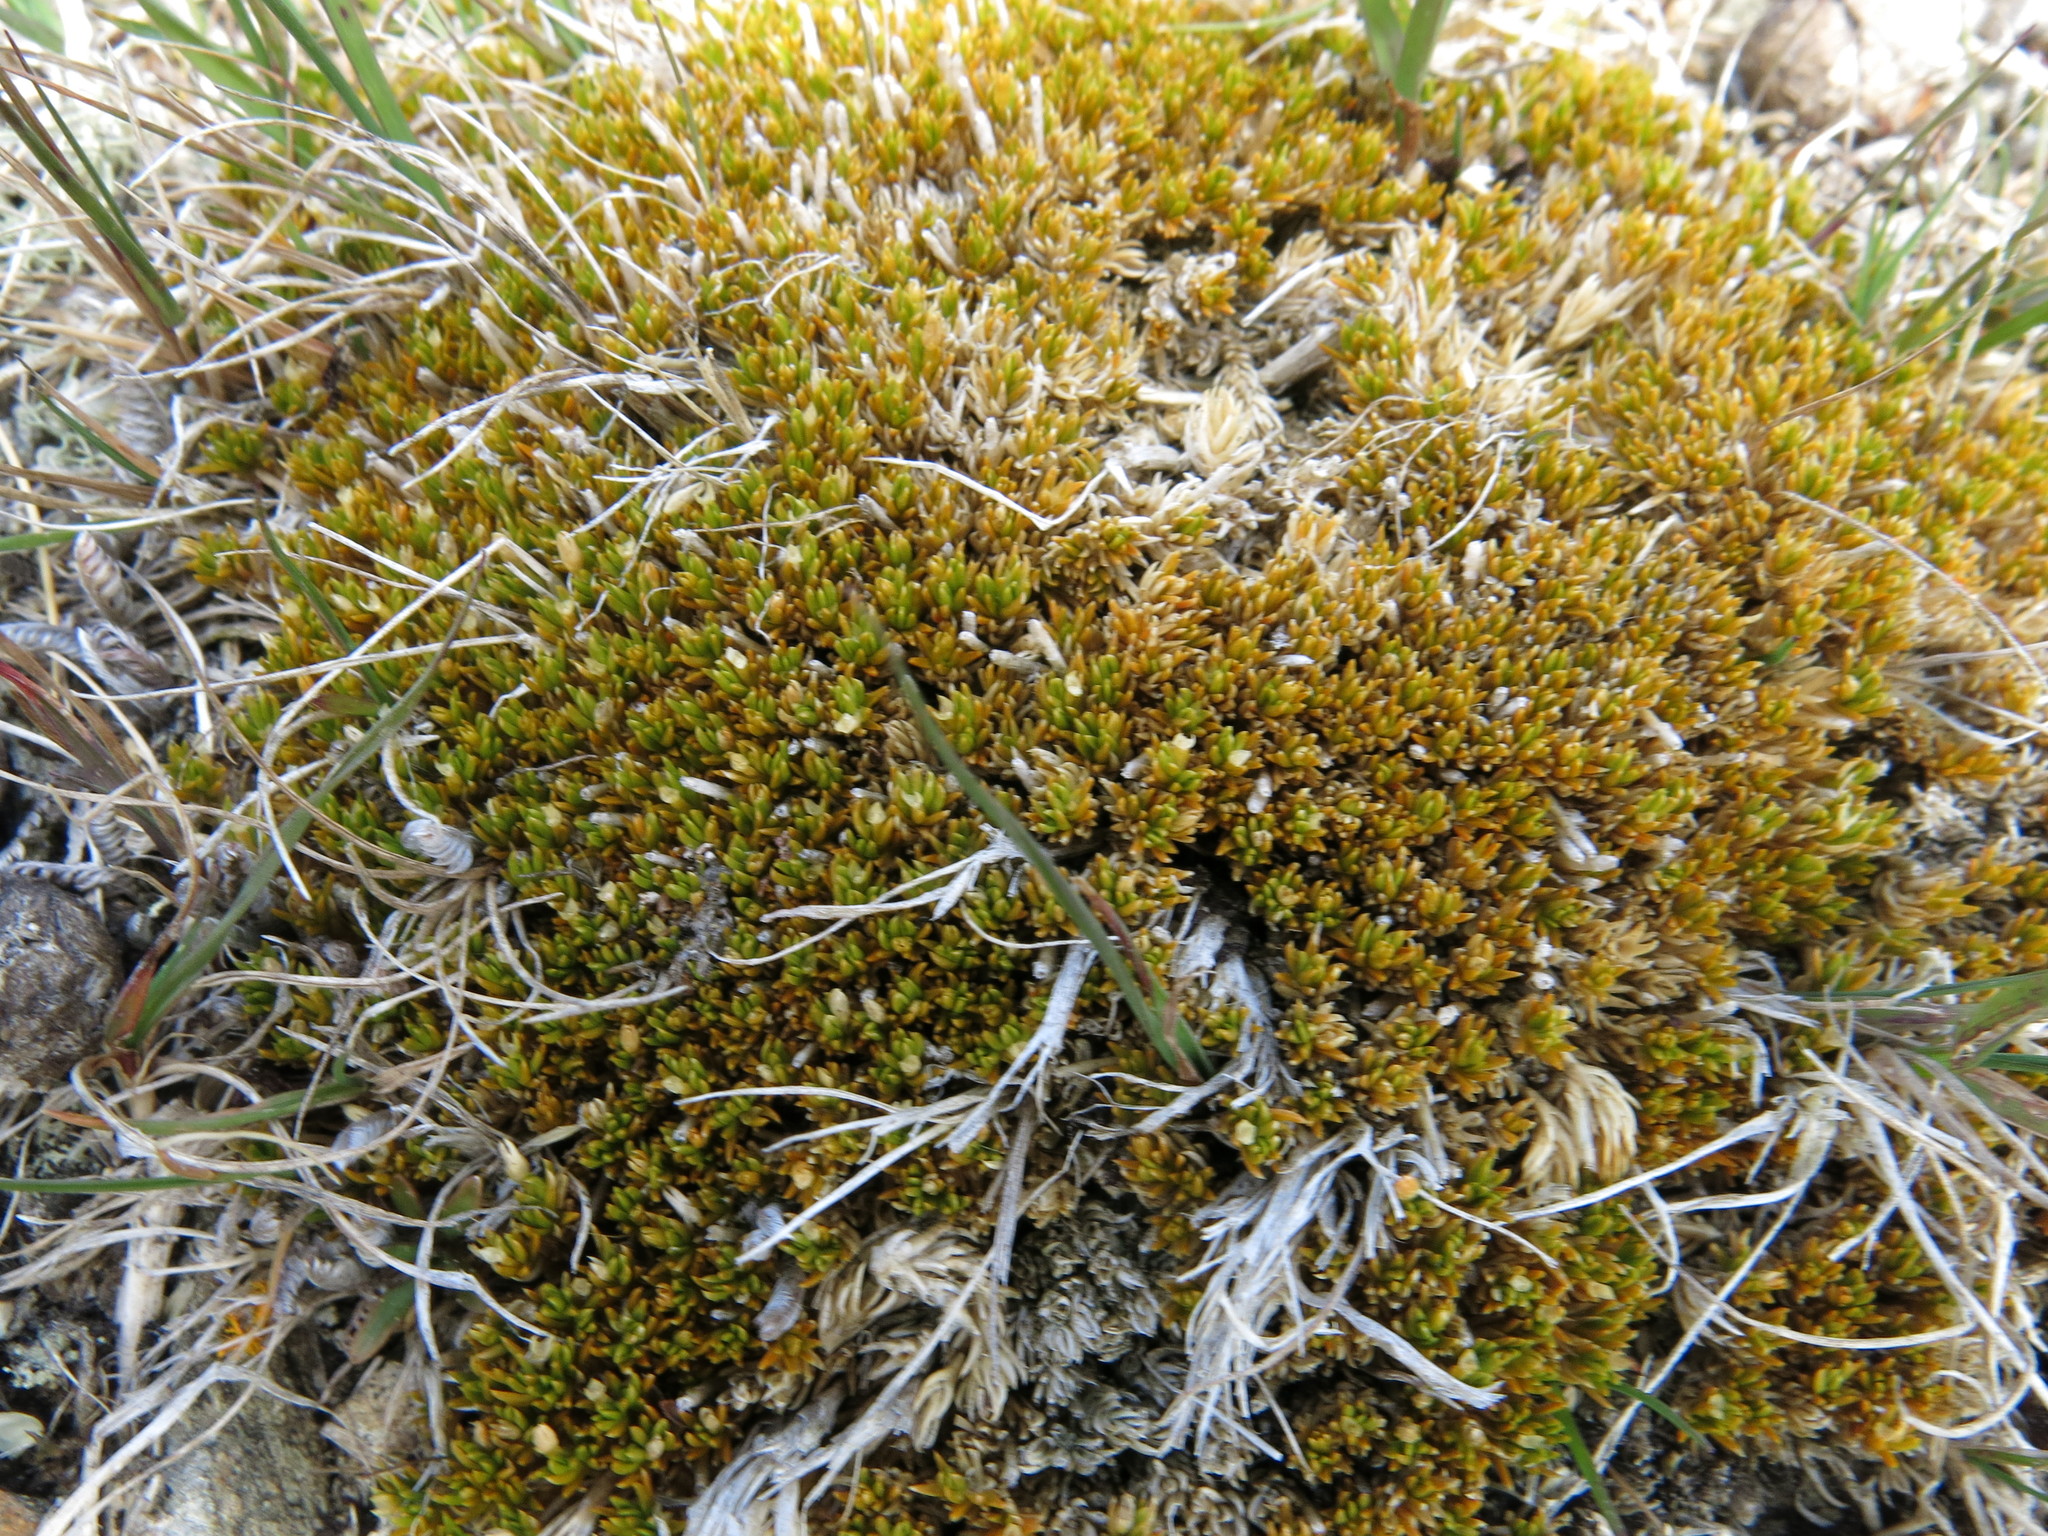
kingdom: Plantae
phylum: Tracheophyta
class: Magnoliopsida
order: Caryophyllales
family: Caryophyllaceae
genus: Scleranthus
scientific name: Scleranthus uniflorus
